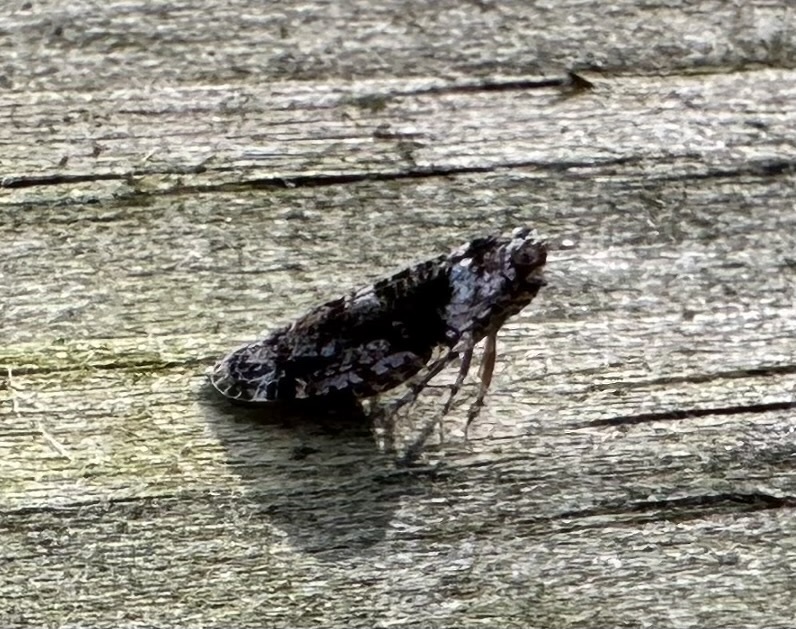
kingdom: Animalia
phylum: Arthropoda
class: Insecta
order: Hemiptera
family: Achilidae
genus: Catonia
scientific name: Catonia nava
